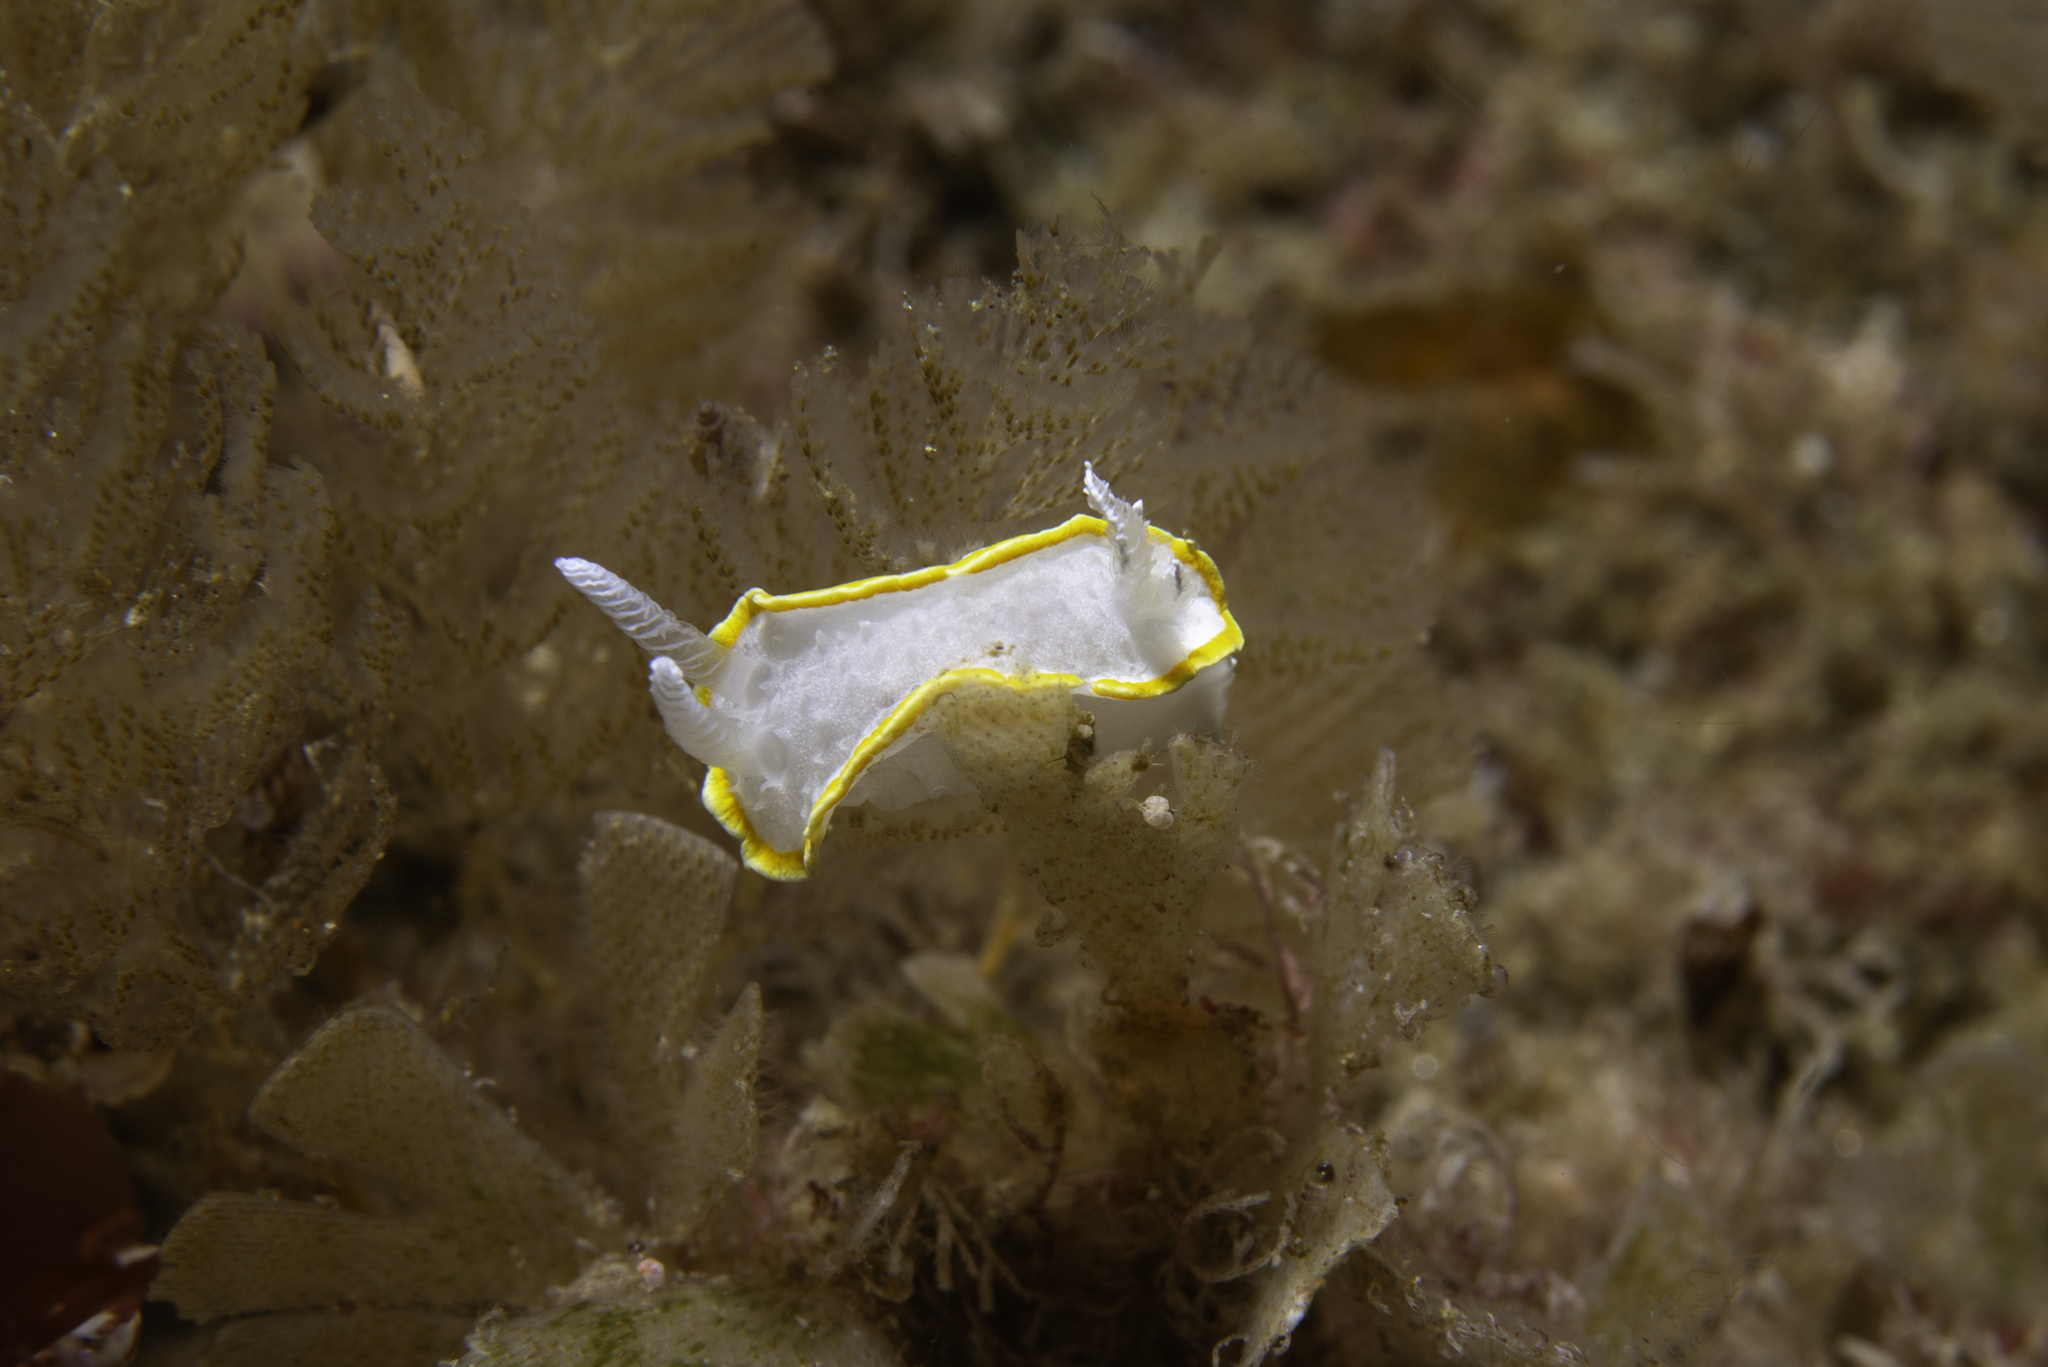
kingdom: Animalia
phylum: Mollusca
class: Gastropoda
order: Nudibranchia
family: Calycidorididae
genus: Diaphorodoris
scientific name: Diaphorodoris alba
